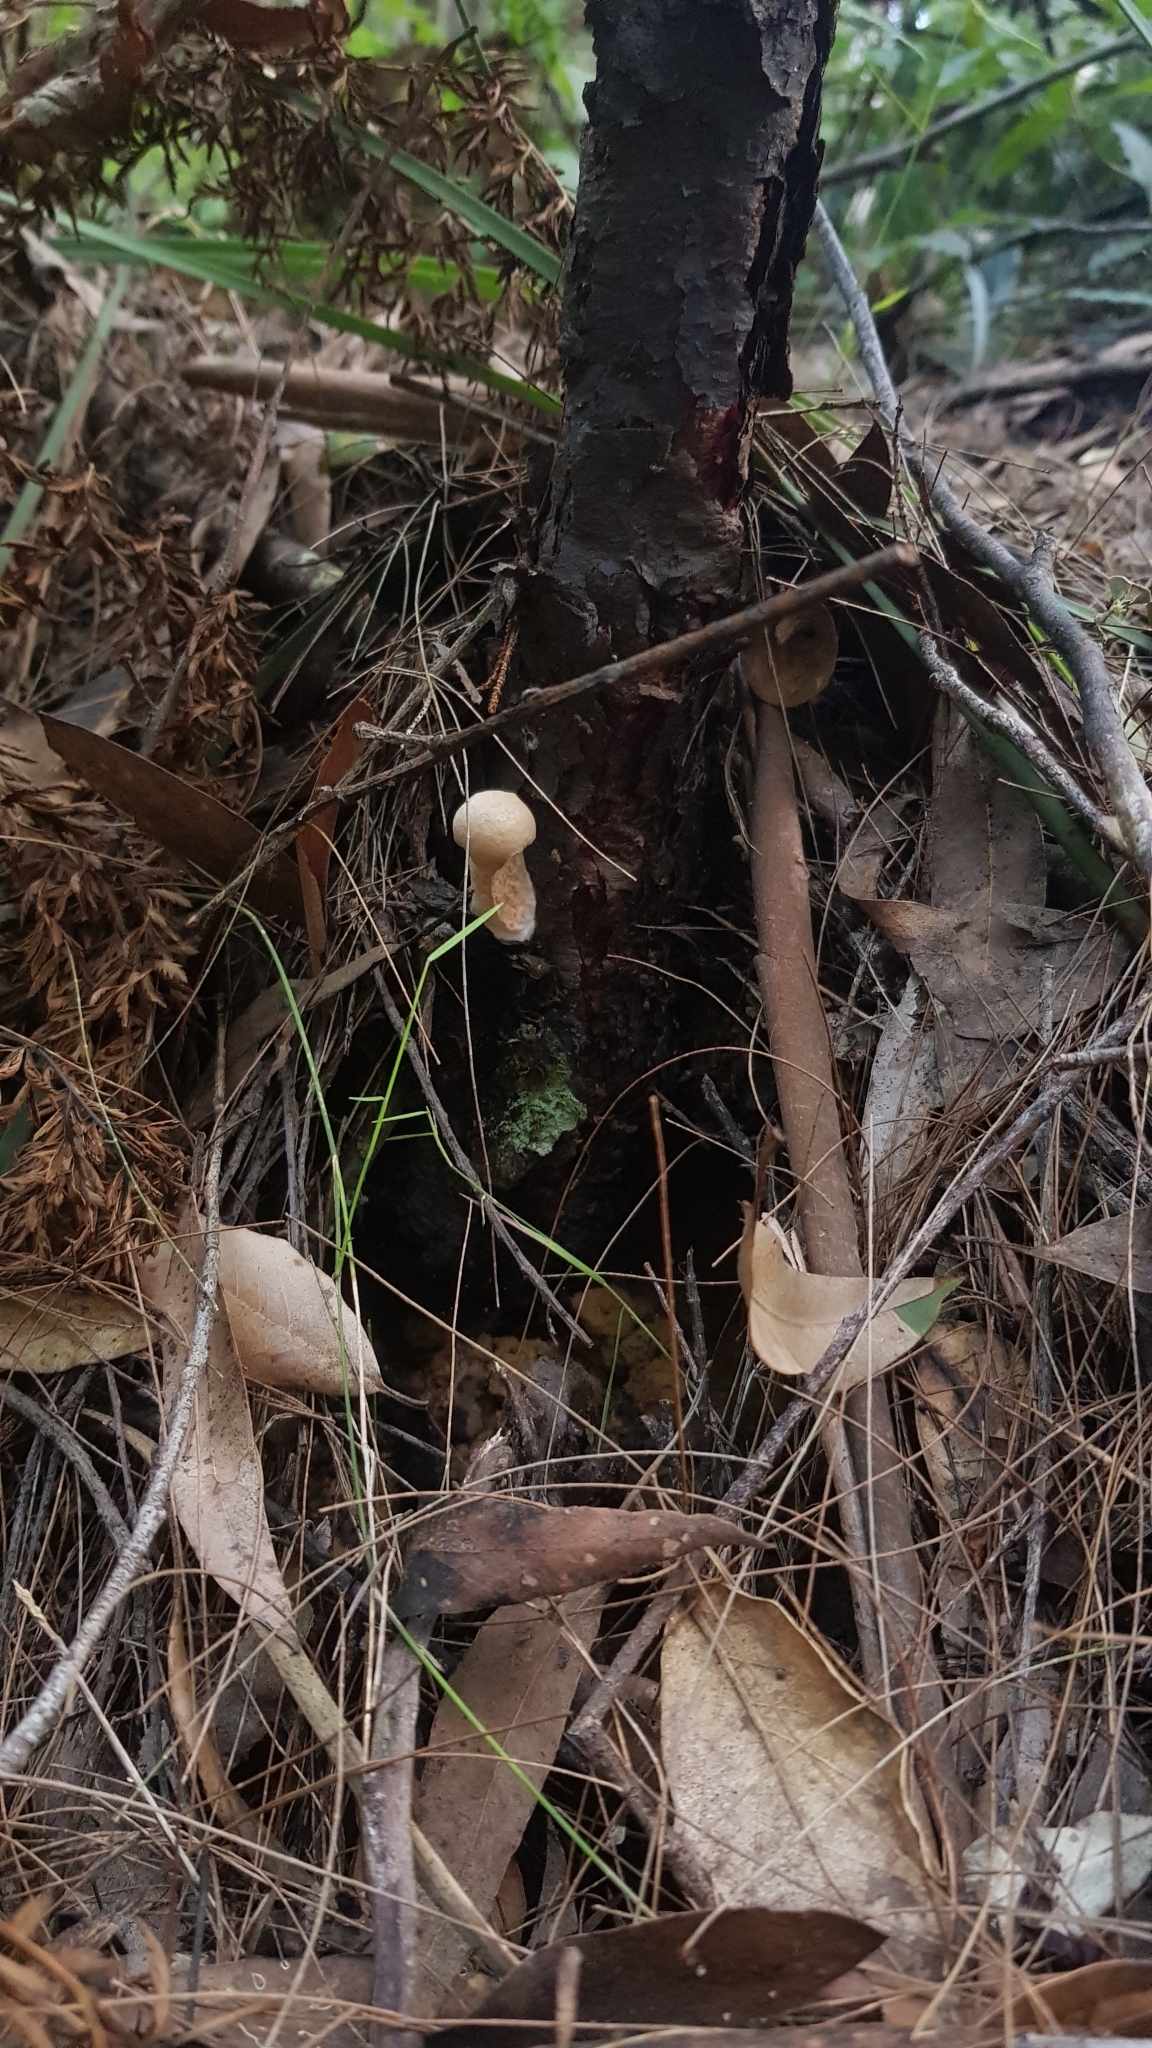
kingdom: Fungi
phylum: Basidiomycota
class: Agaricomycetes
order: Boletales
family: Boletaceae
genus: Boletellus
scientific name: Boletellus dissiliens
